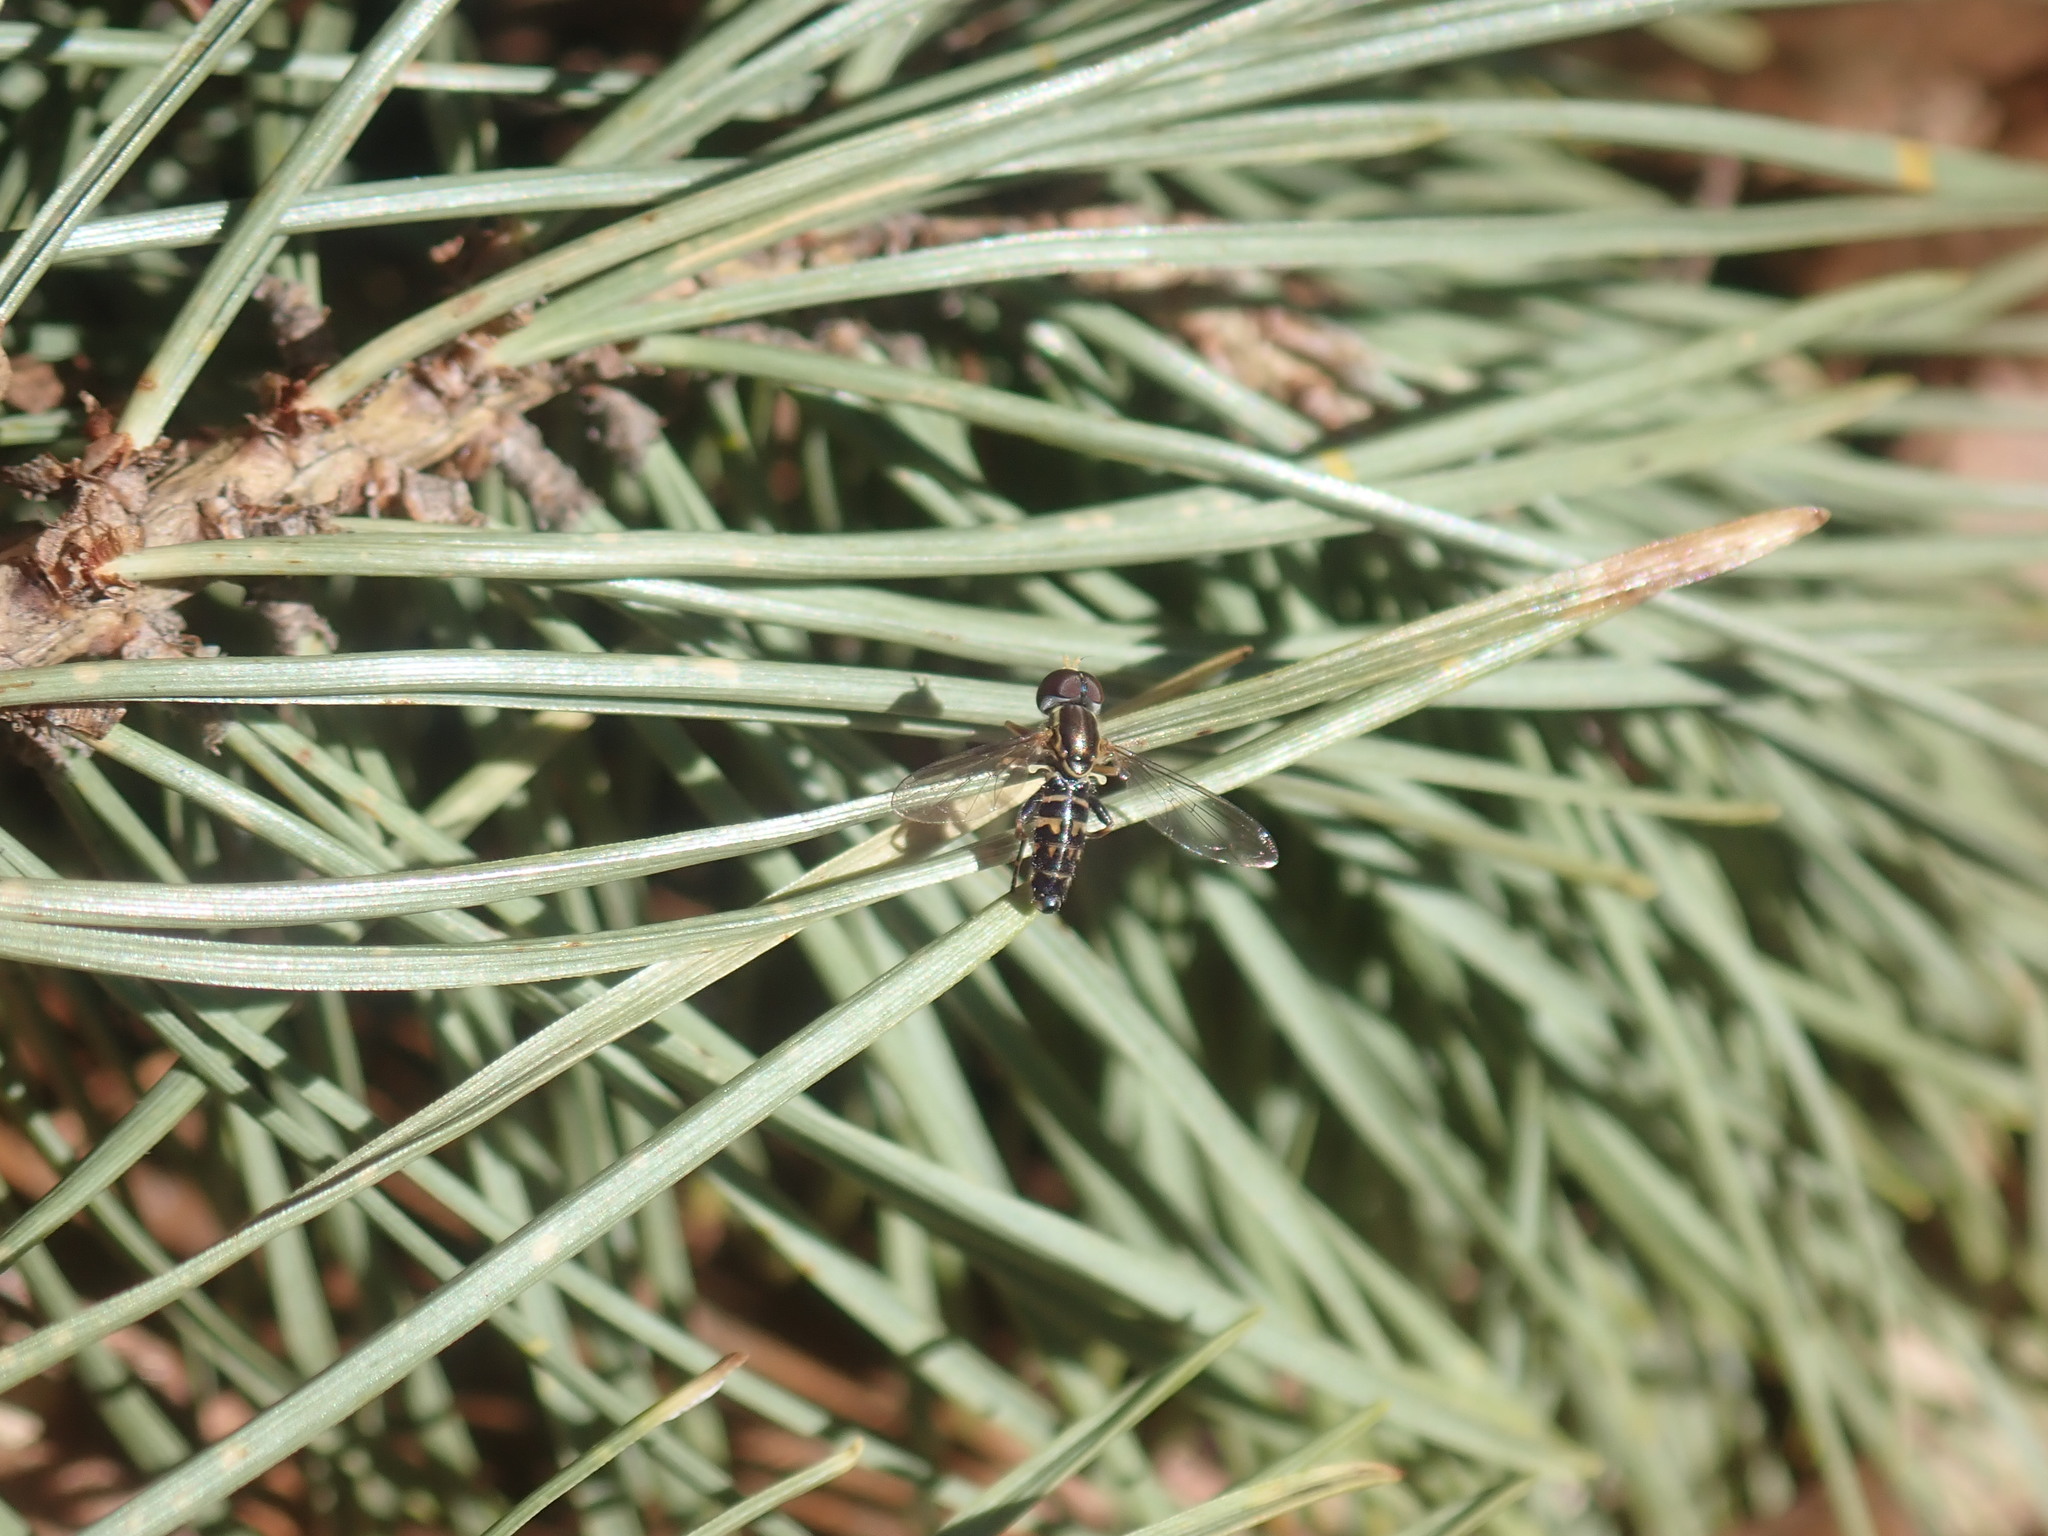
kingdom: Animalia
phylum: Arthropoda
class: Insecta
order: Diptera
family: Syrphidae
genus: Toxomerus
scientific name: Toxomerus geminatus
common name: Eastern calligrapher
